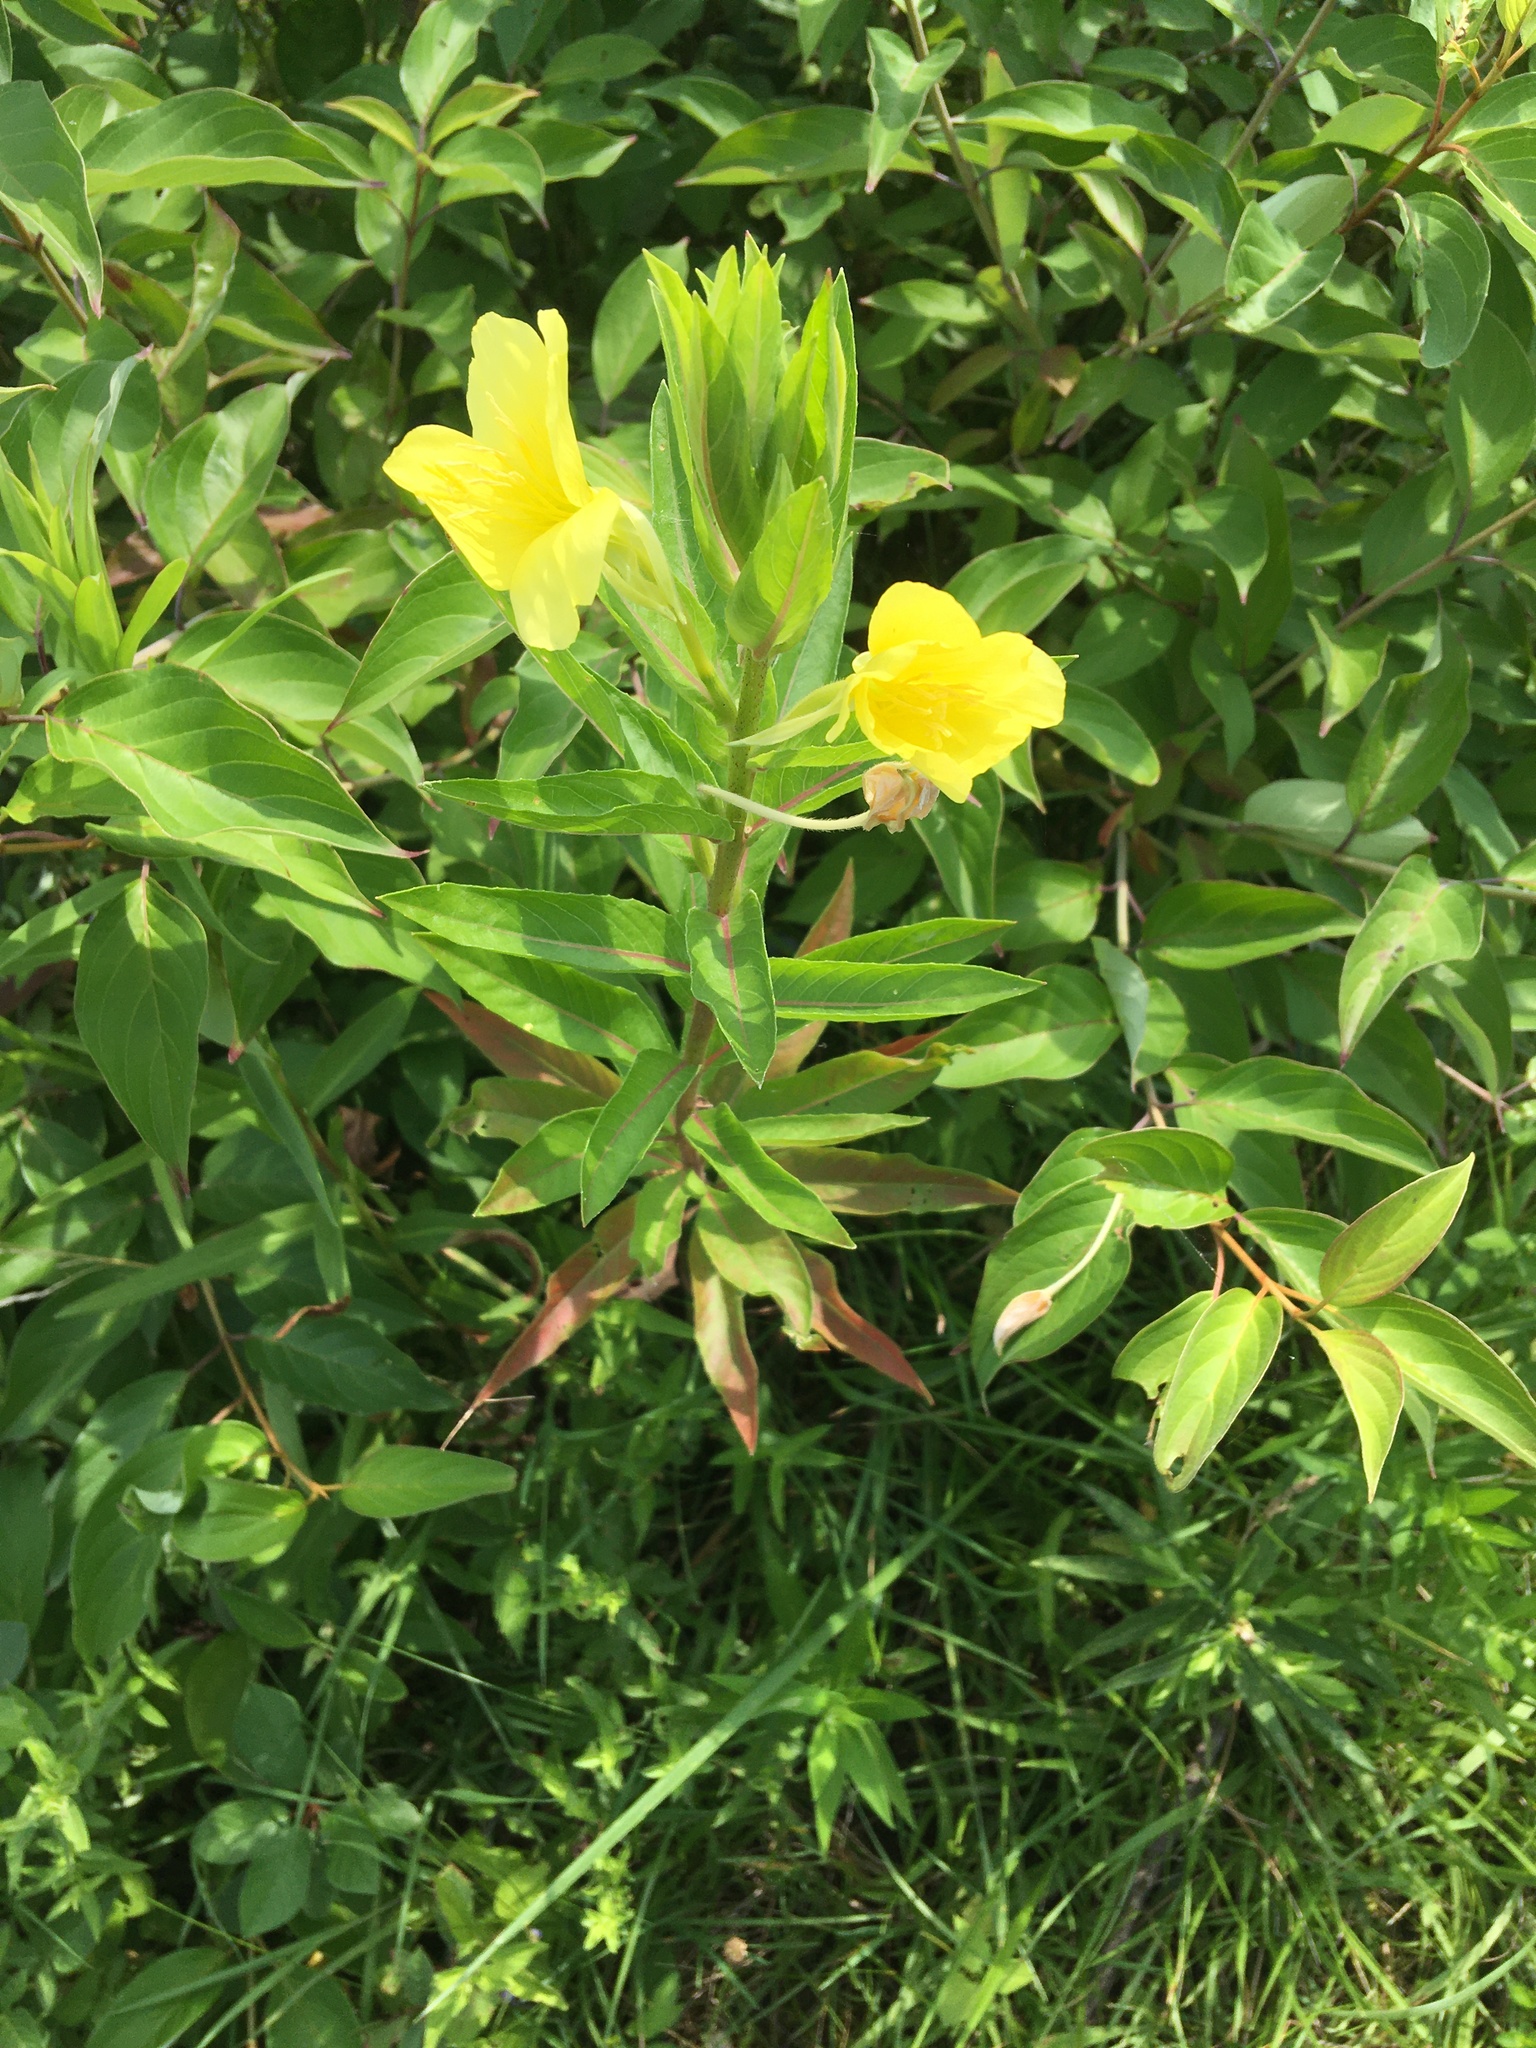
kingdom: Plantae
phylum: Tracheophyta
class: Magnoliopsida
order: Myrtales
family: Onagraceae
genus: Oenothera
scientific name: Oenothera pilosella
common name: Finely-pilose evening-primrose
